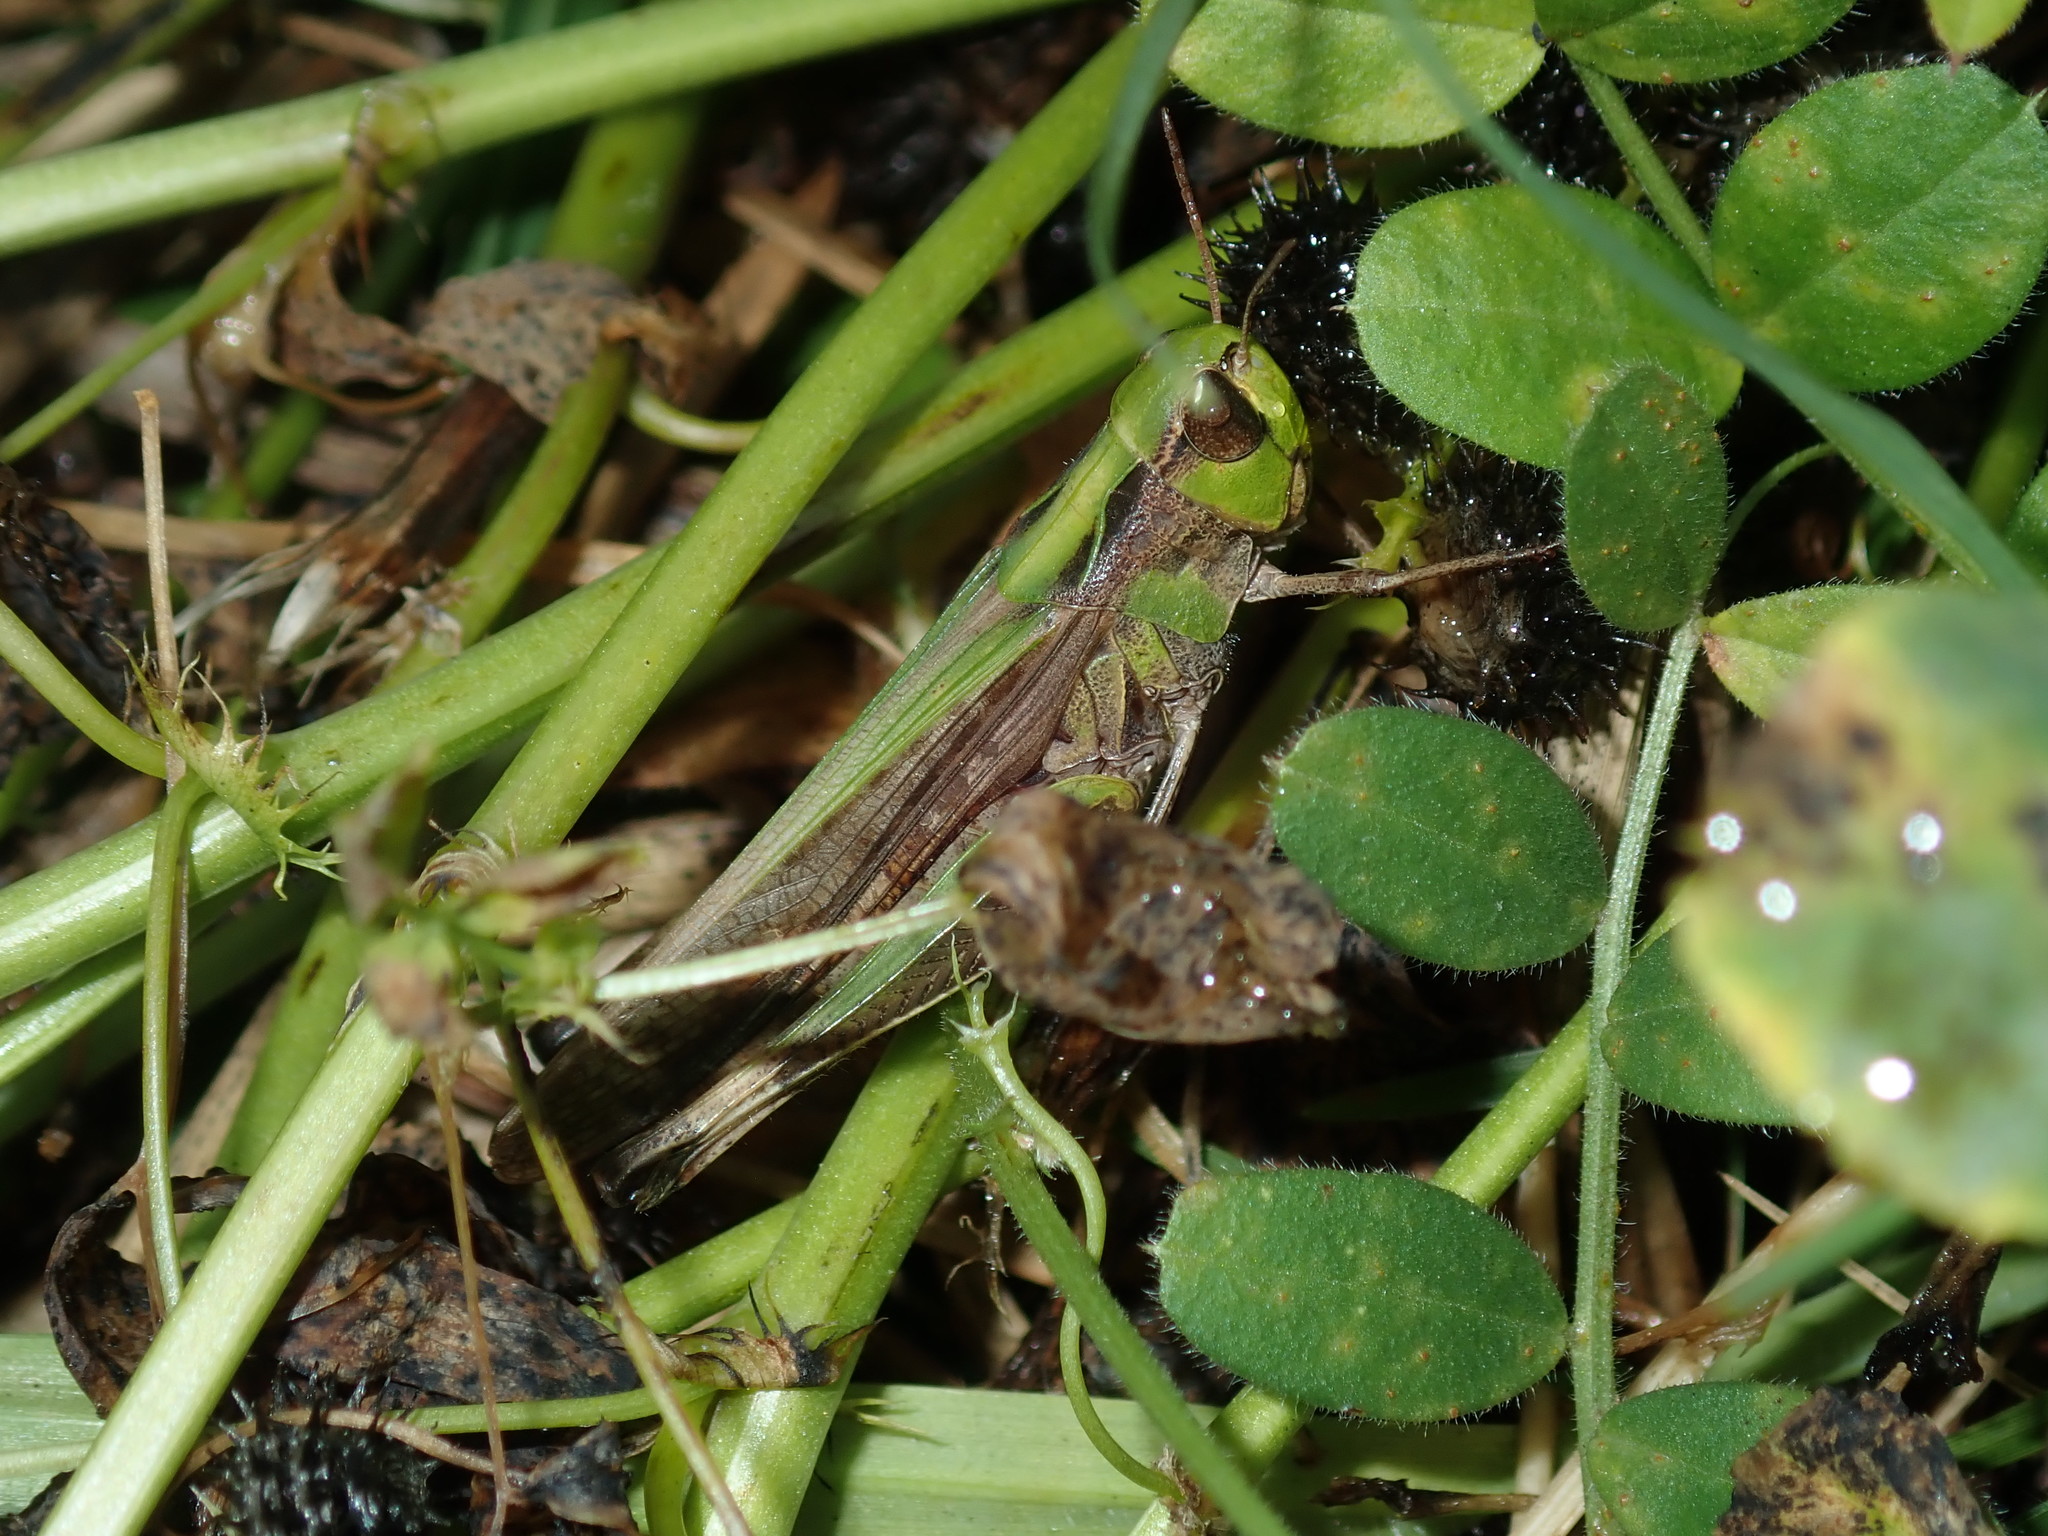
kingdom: Animalia
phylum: Arthropoda
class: Insecta
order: Orthoptera
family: Acrididae
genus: Caledia
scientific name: Caledia captiva
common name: Caledia
